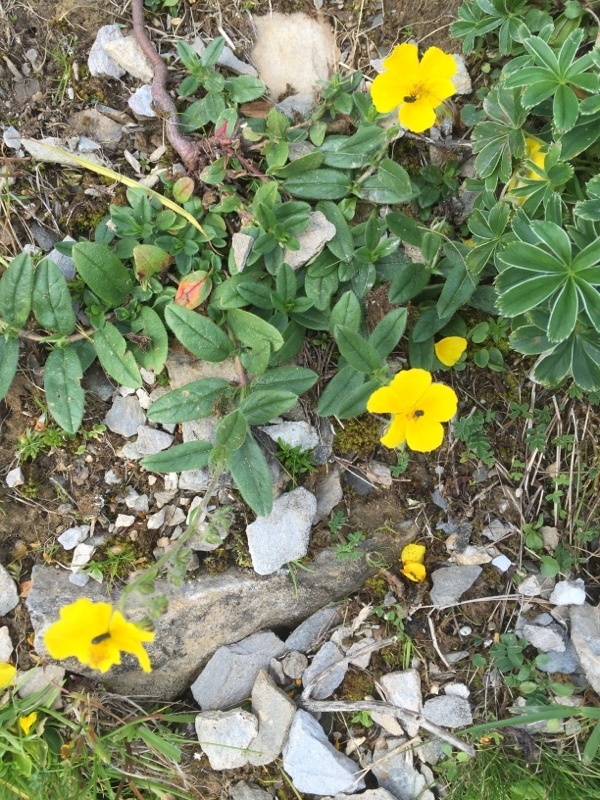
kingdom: Plantae
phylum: Tracheophyta
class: Magnoliopsida
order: Malvales
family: Cistaceae
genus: Helianthemum
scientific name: Helianthemum nummularium
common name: Common rock-rose
